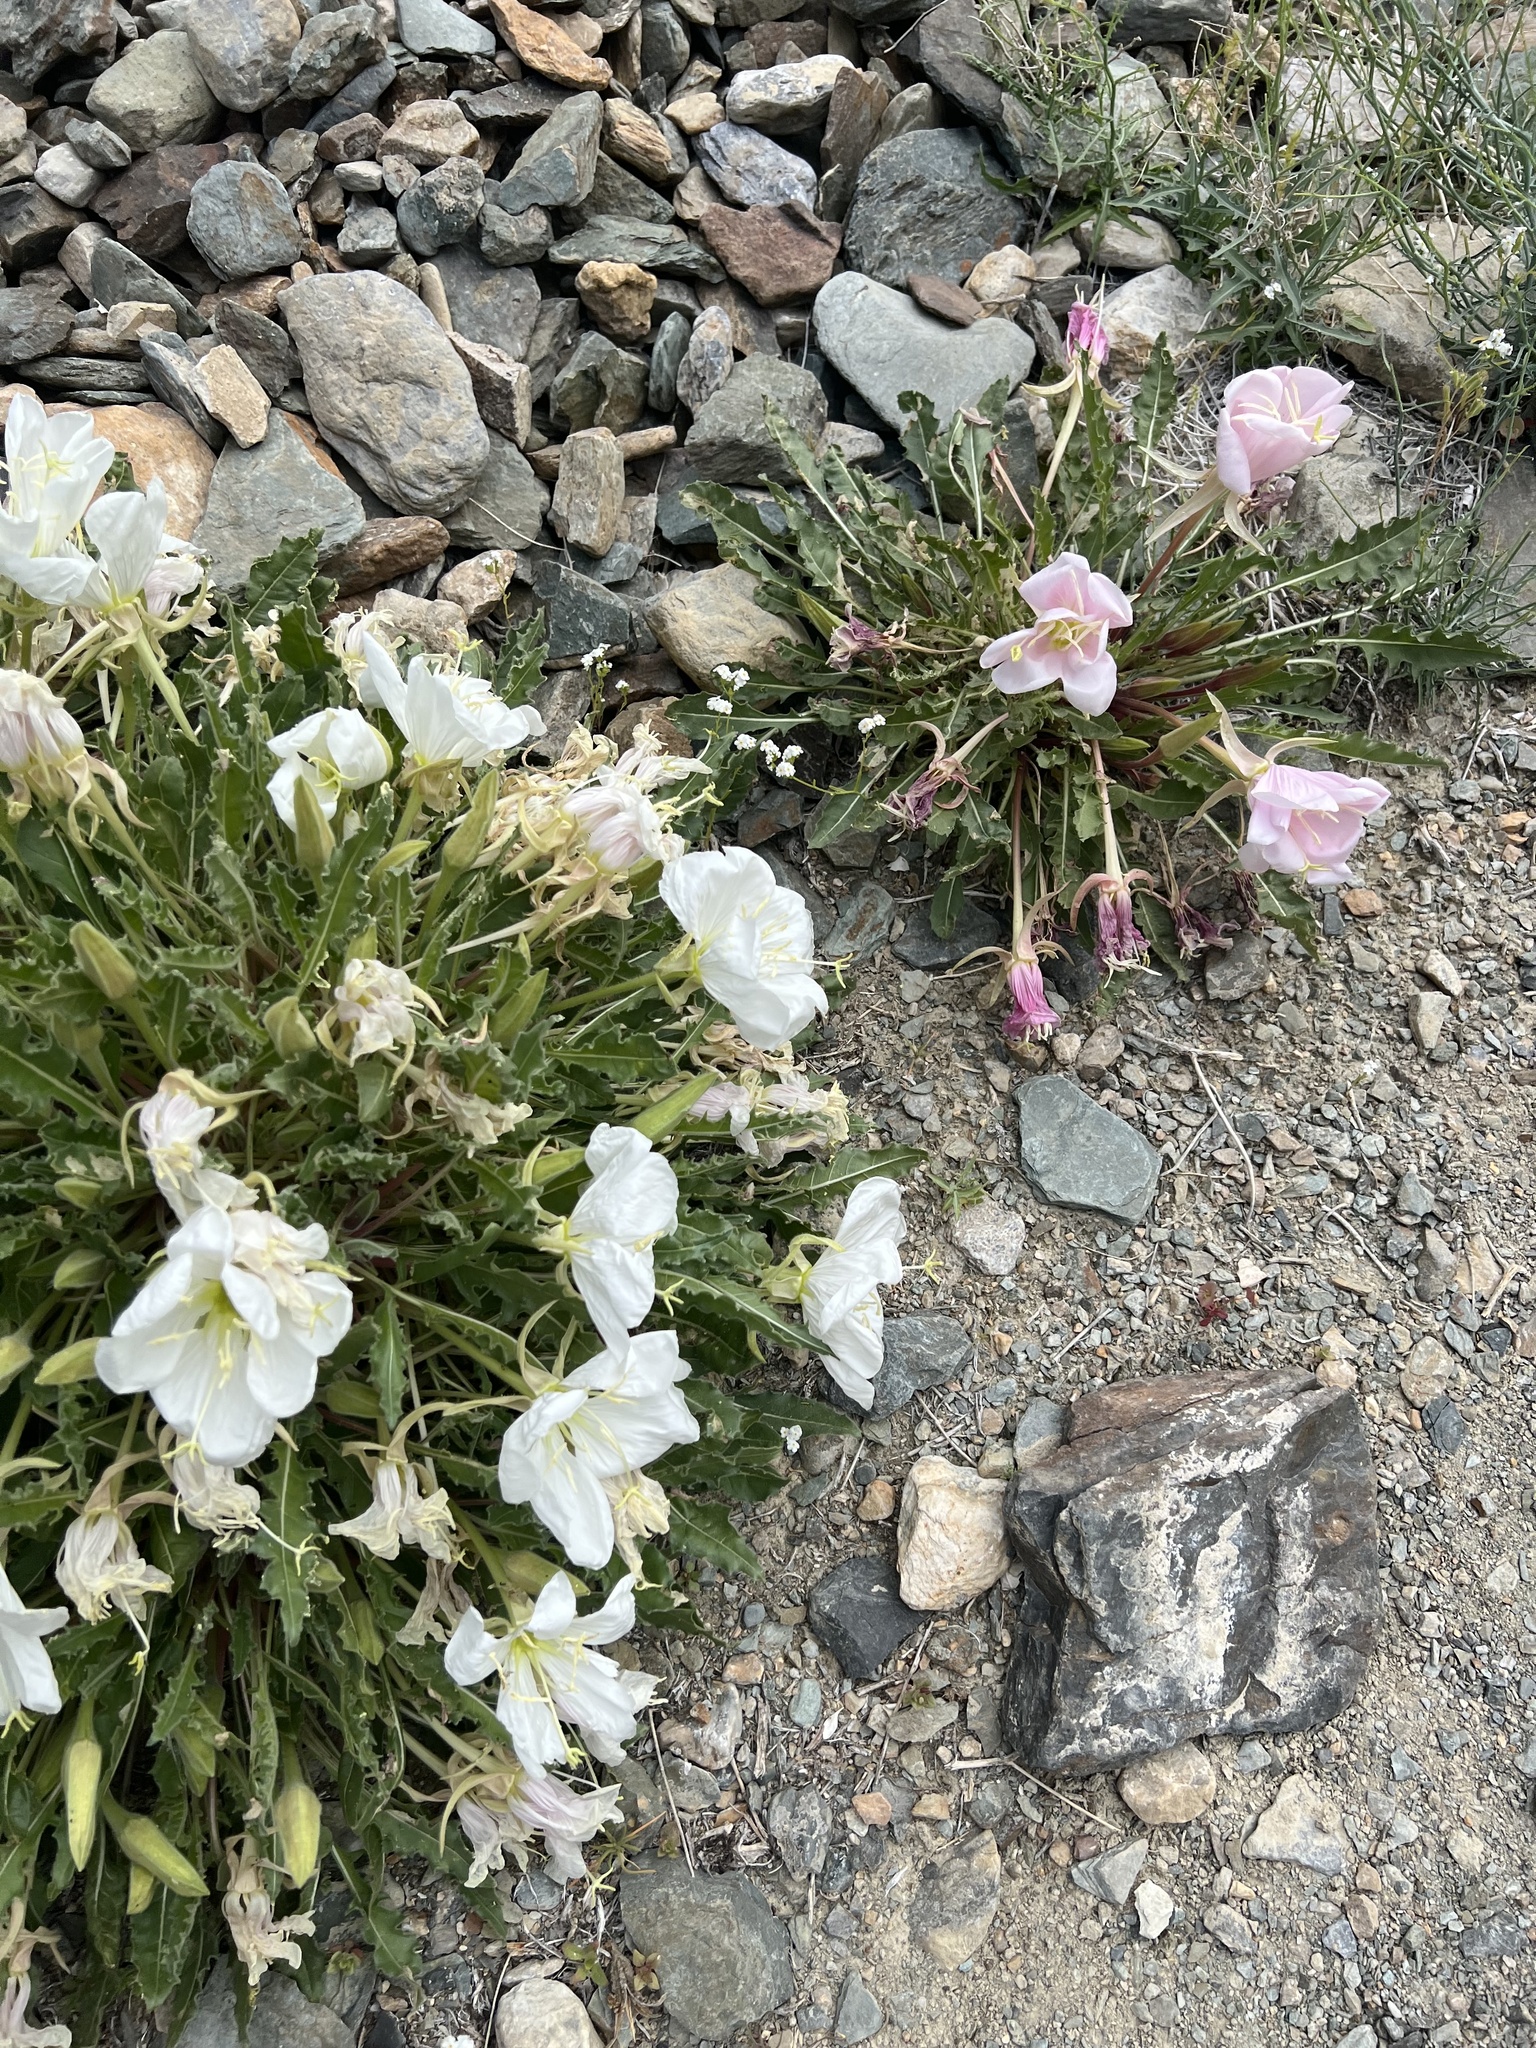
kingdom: Plantae
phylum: Tracheophyta
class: Magnoliopsida
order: Myrtales
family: Onagraceae
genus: Oenothera
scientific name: Oenothera cespitosa
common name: Tufted evening-primrose
